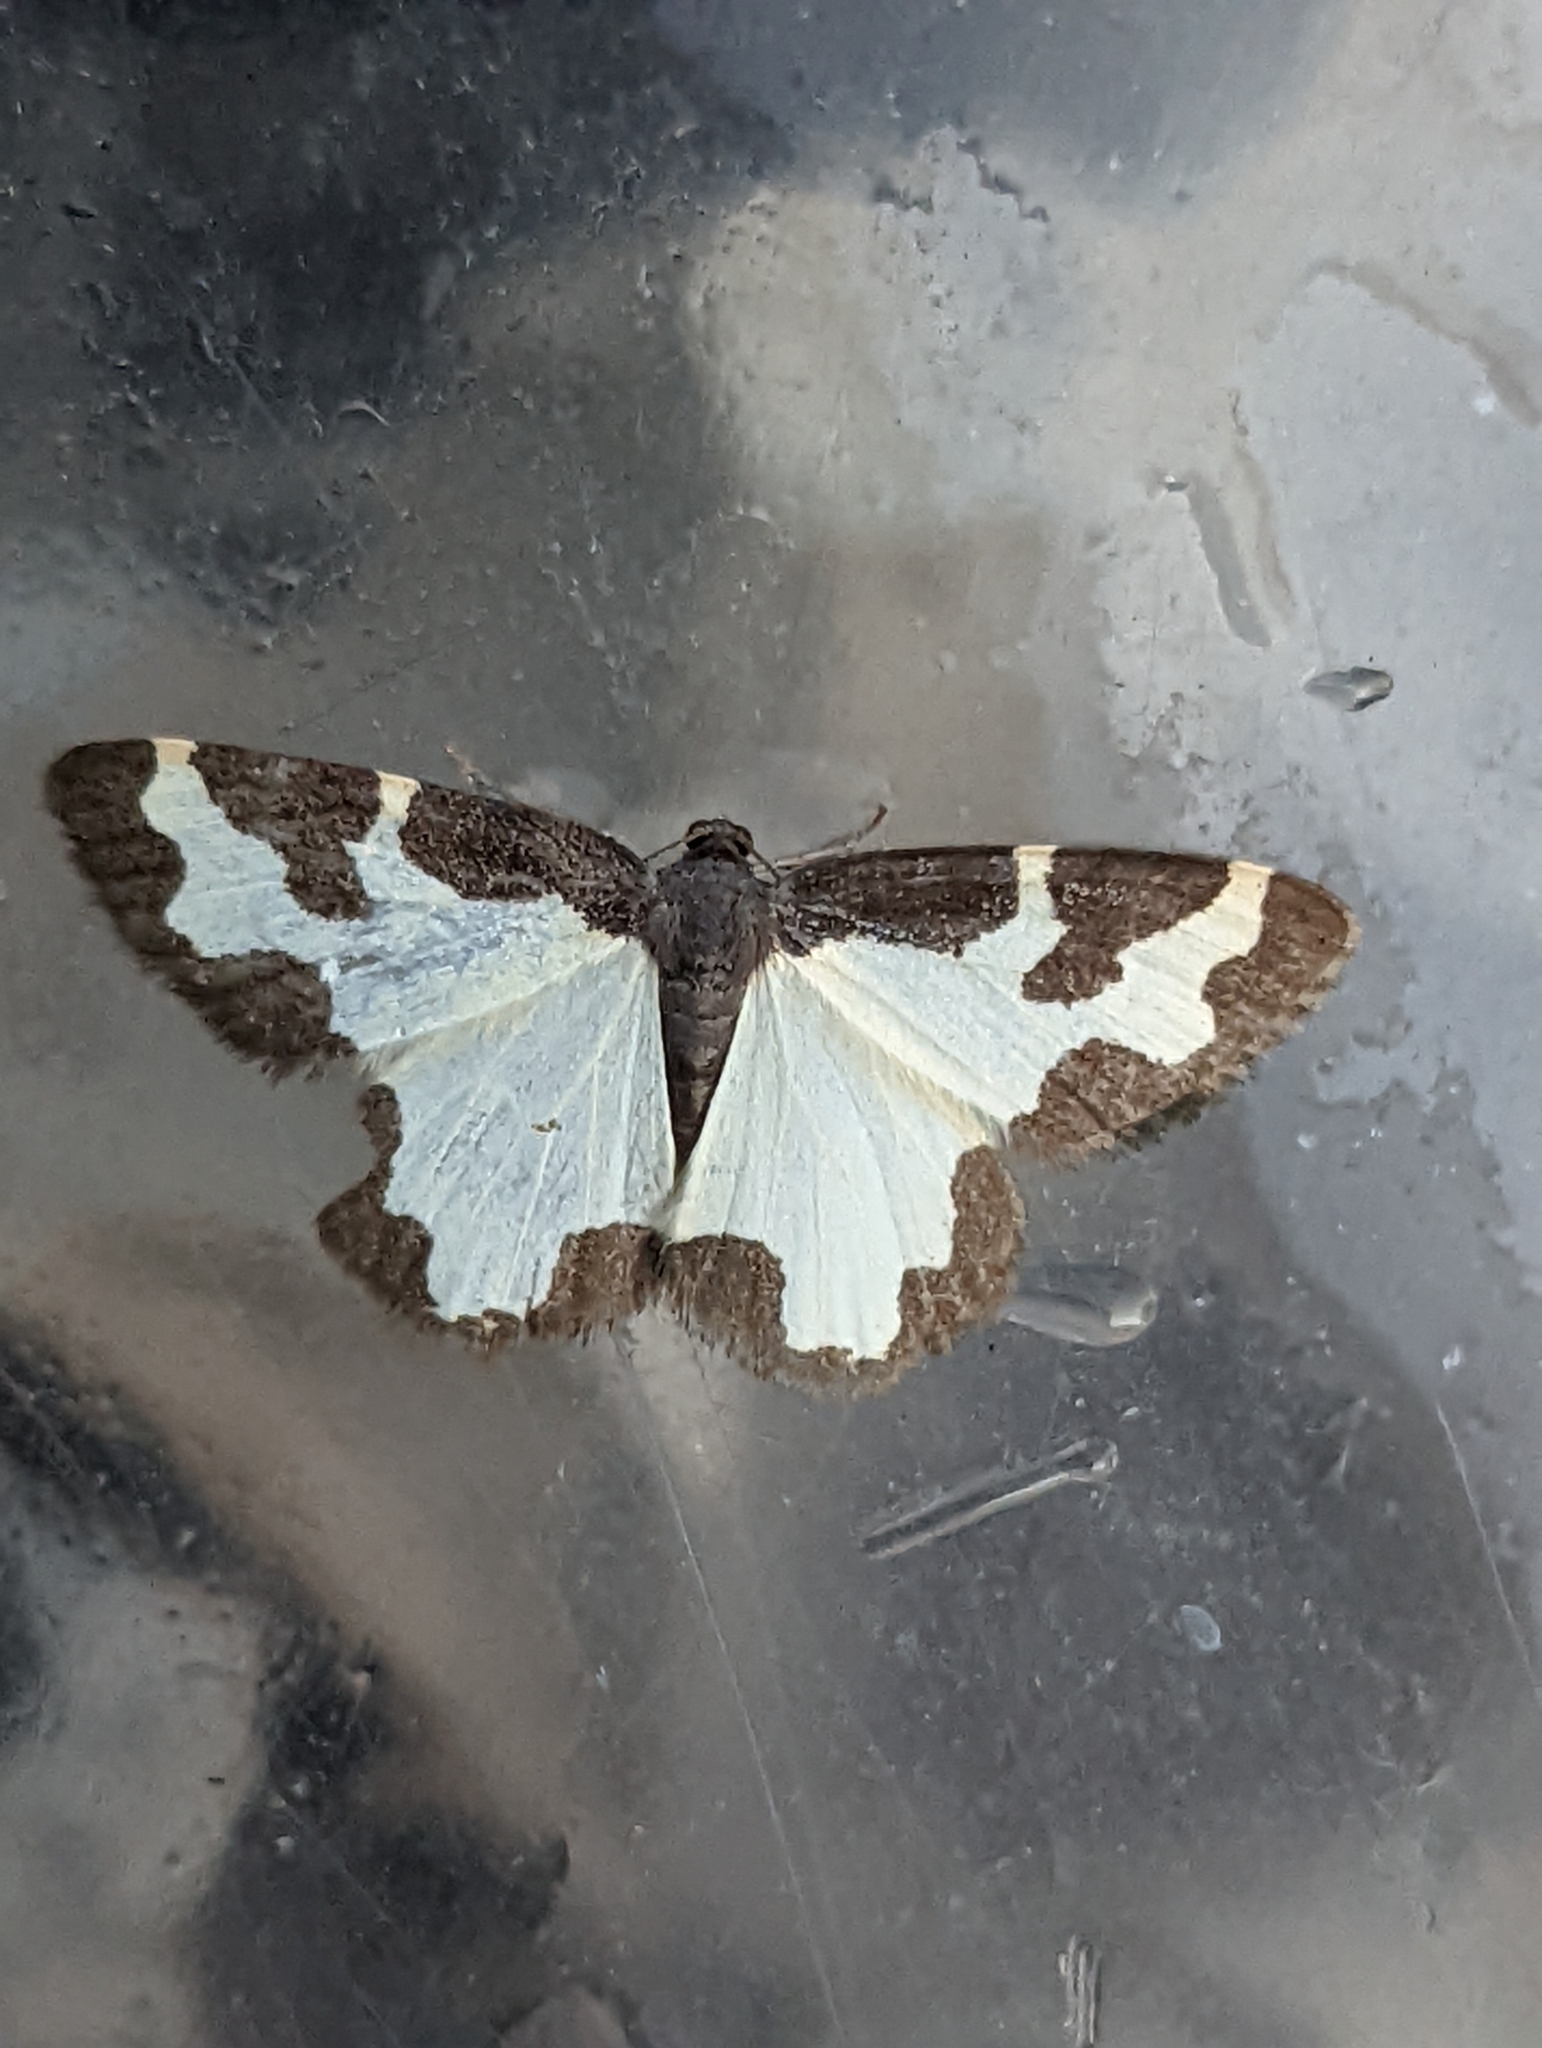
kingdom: Animalia
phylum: Arthropoda
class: Insecta
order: Lepidoptera
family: Geometridae
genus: Lomaspilis
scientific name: Lomaspilis marginata
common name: Clouded border
